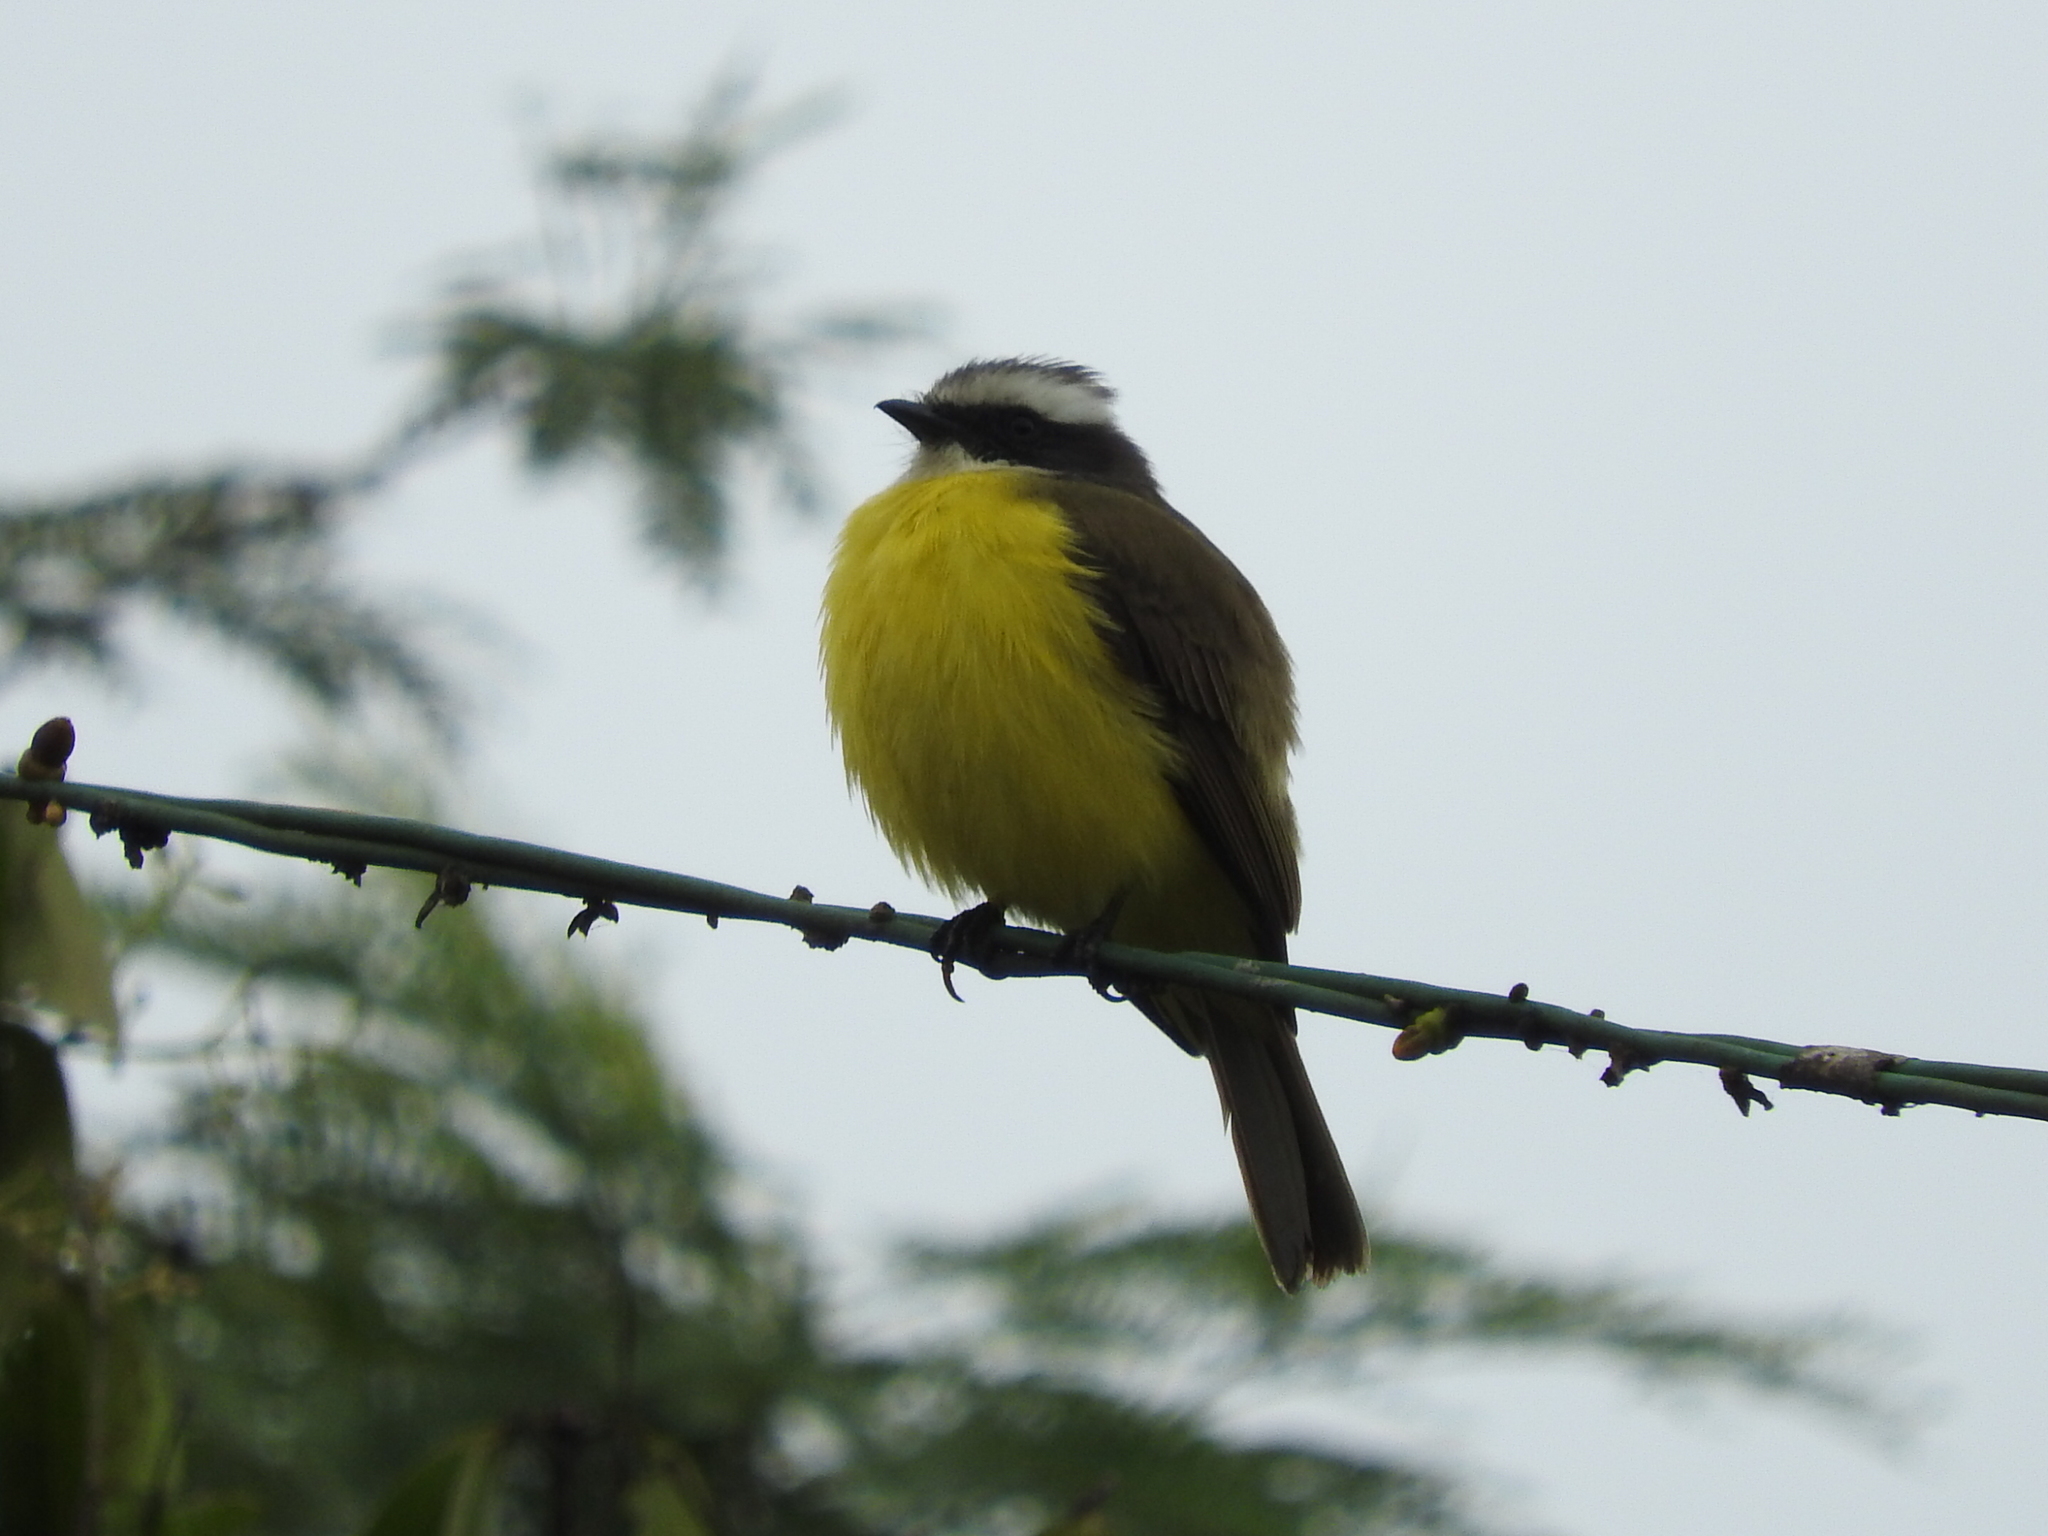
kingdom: Animalia
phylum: Chordata
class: Aves
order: Passeriformes
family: Tyrannidae
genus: Myiozetetes
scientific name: Myiozetetes similis
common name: Social flycatcher
